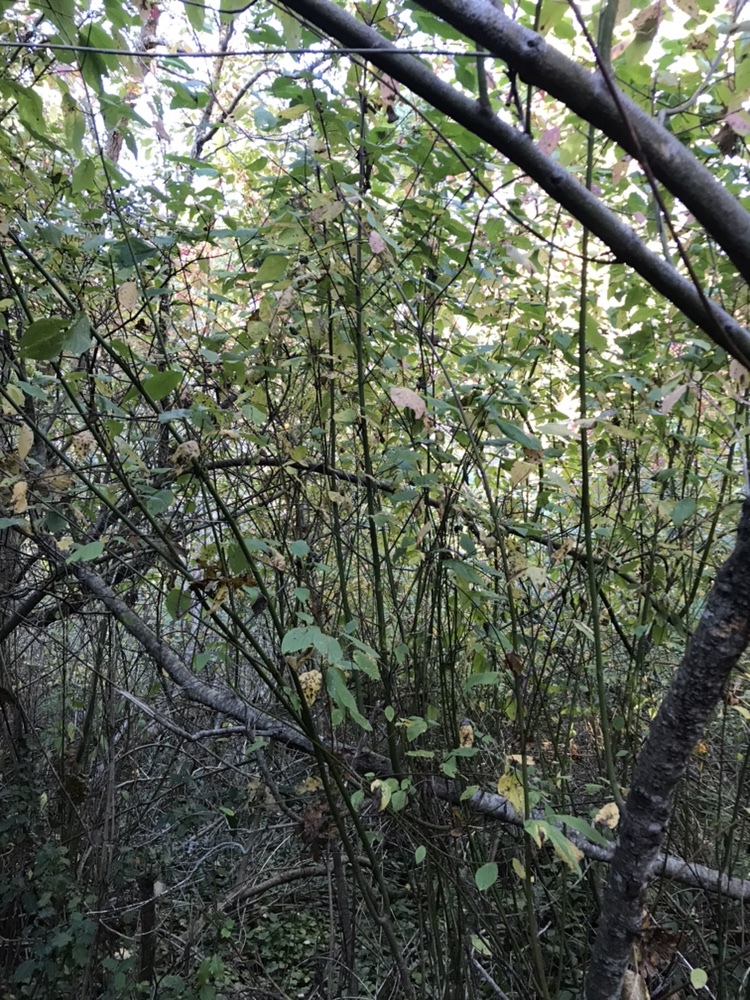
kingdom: Plantae
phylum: Tracheophyta
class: Magnoliopsida
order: Cornales
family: Cornaceae
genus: Cornus
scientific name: Cornus nuttallii
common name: Pacific dogwood
